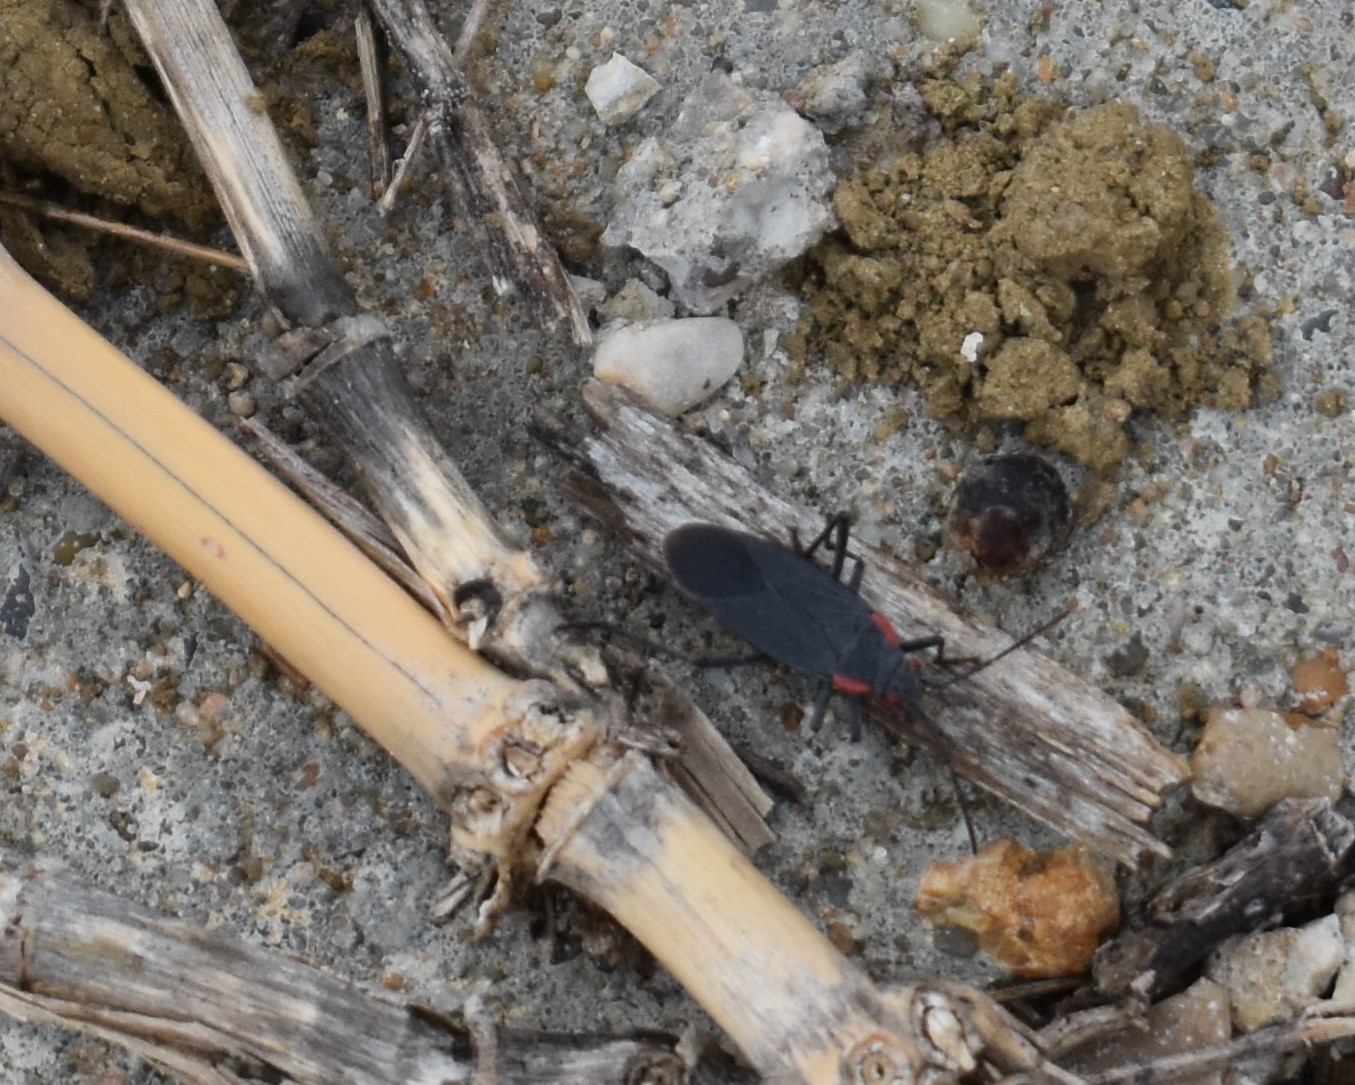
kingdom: Animalia
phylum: Arthropoda
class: Insecta
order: Hemiptera
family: Rhopalidae
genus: Jadera
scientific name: Jadera haematoloma
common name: Red-shouldered bug
